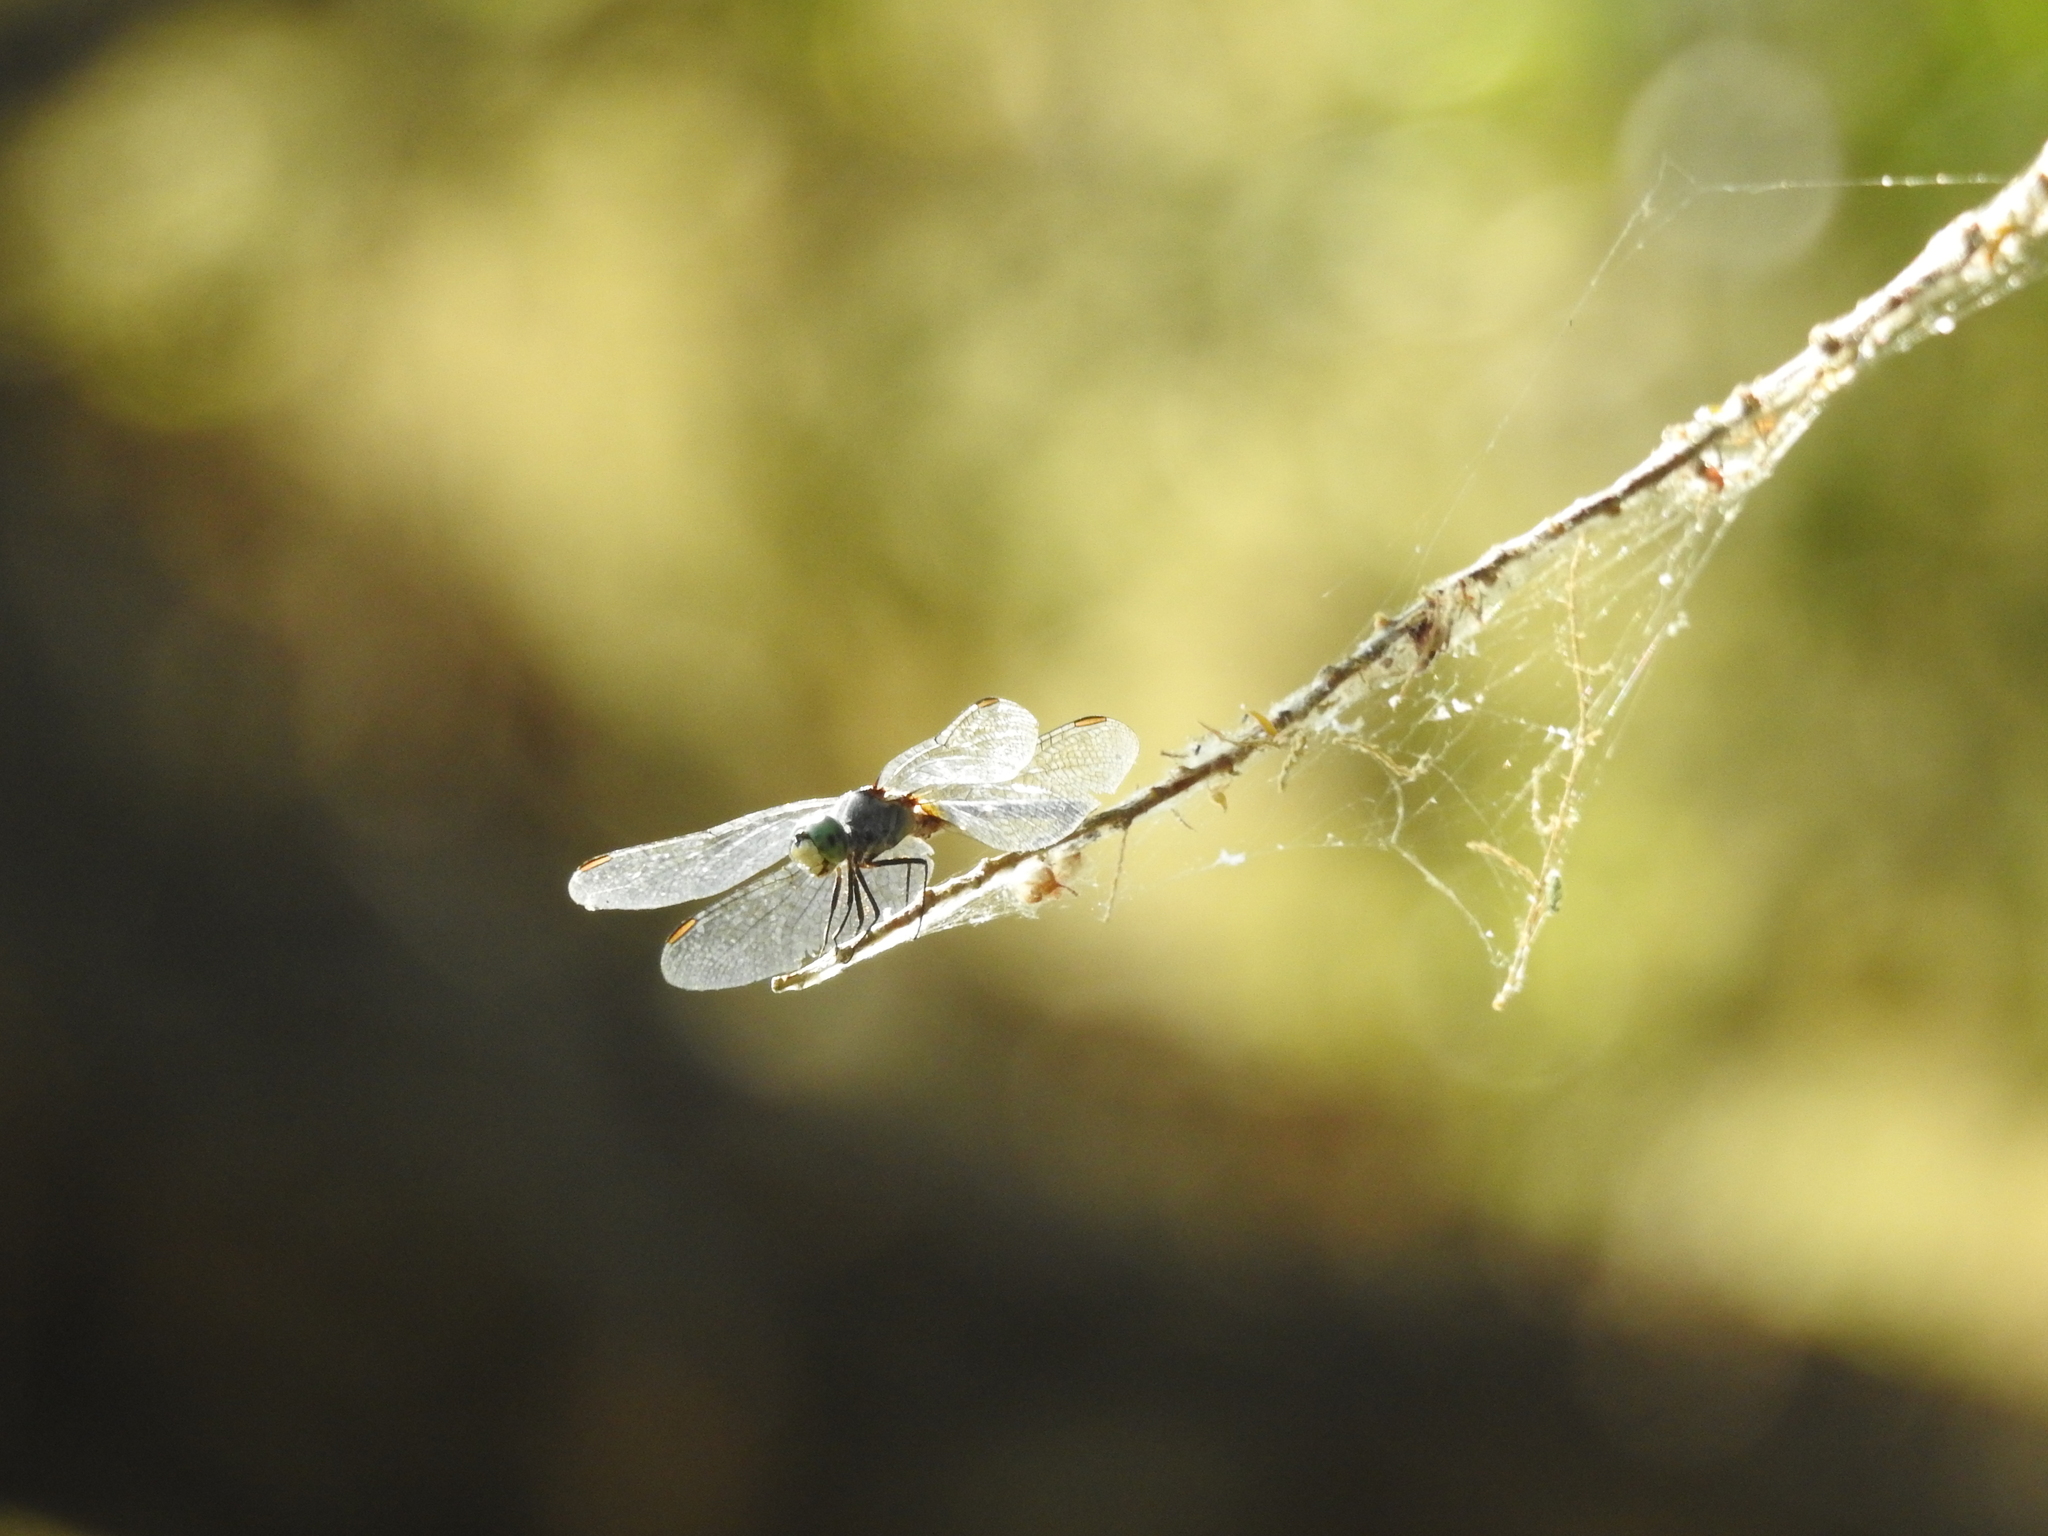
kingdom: Animalia
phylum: Arthropoda
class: Insecta
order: Odonata
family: Libellulidae
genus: Pachydiplax
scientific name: Pachydiplax longipennis
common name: Blue dasher
